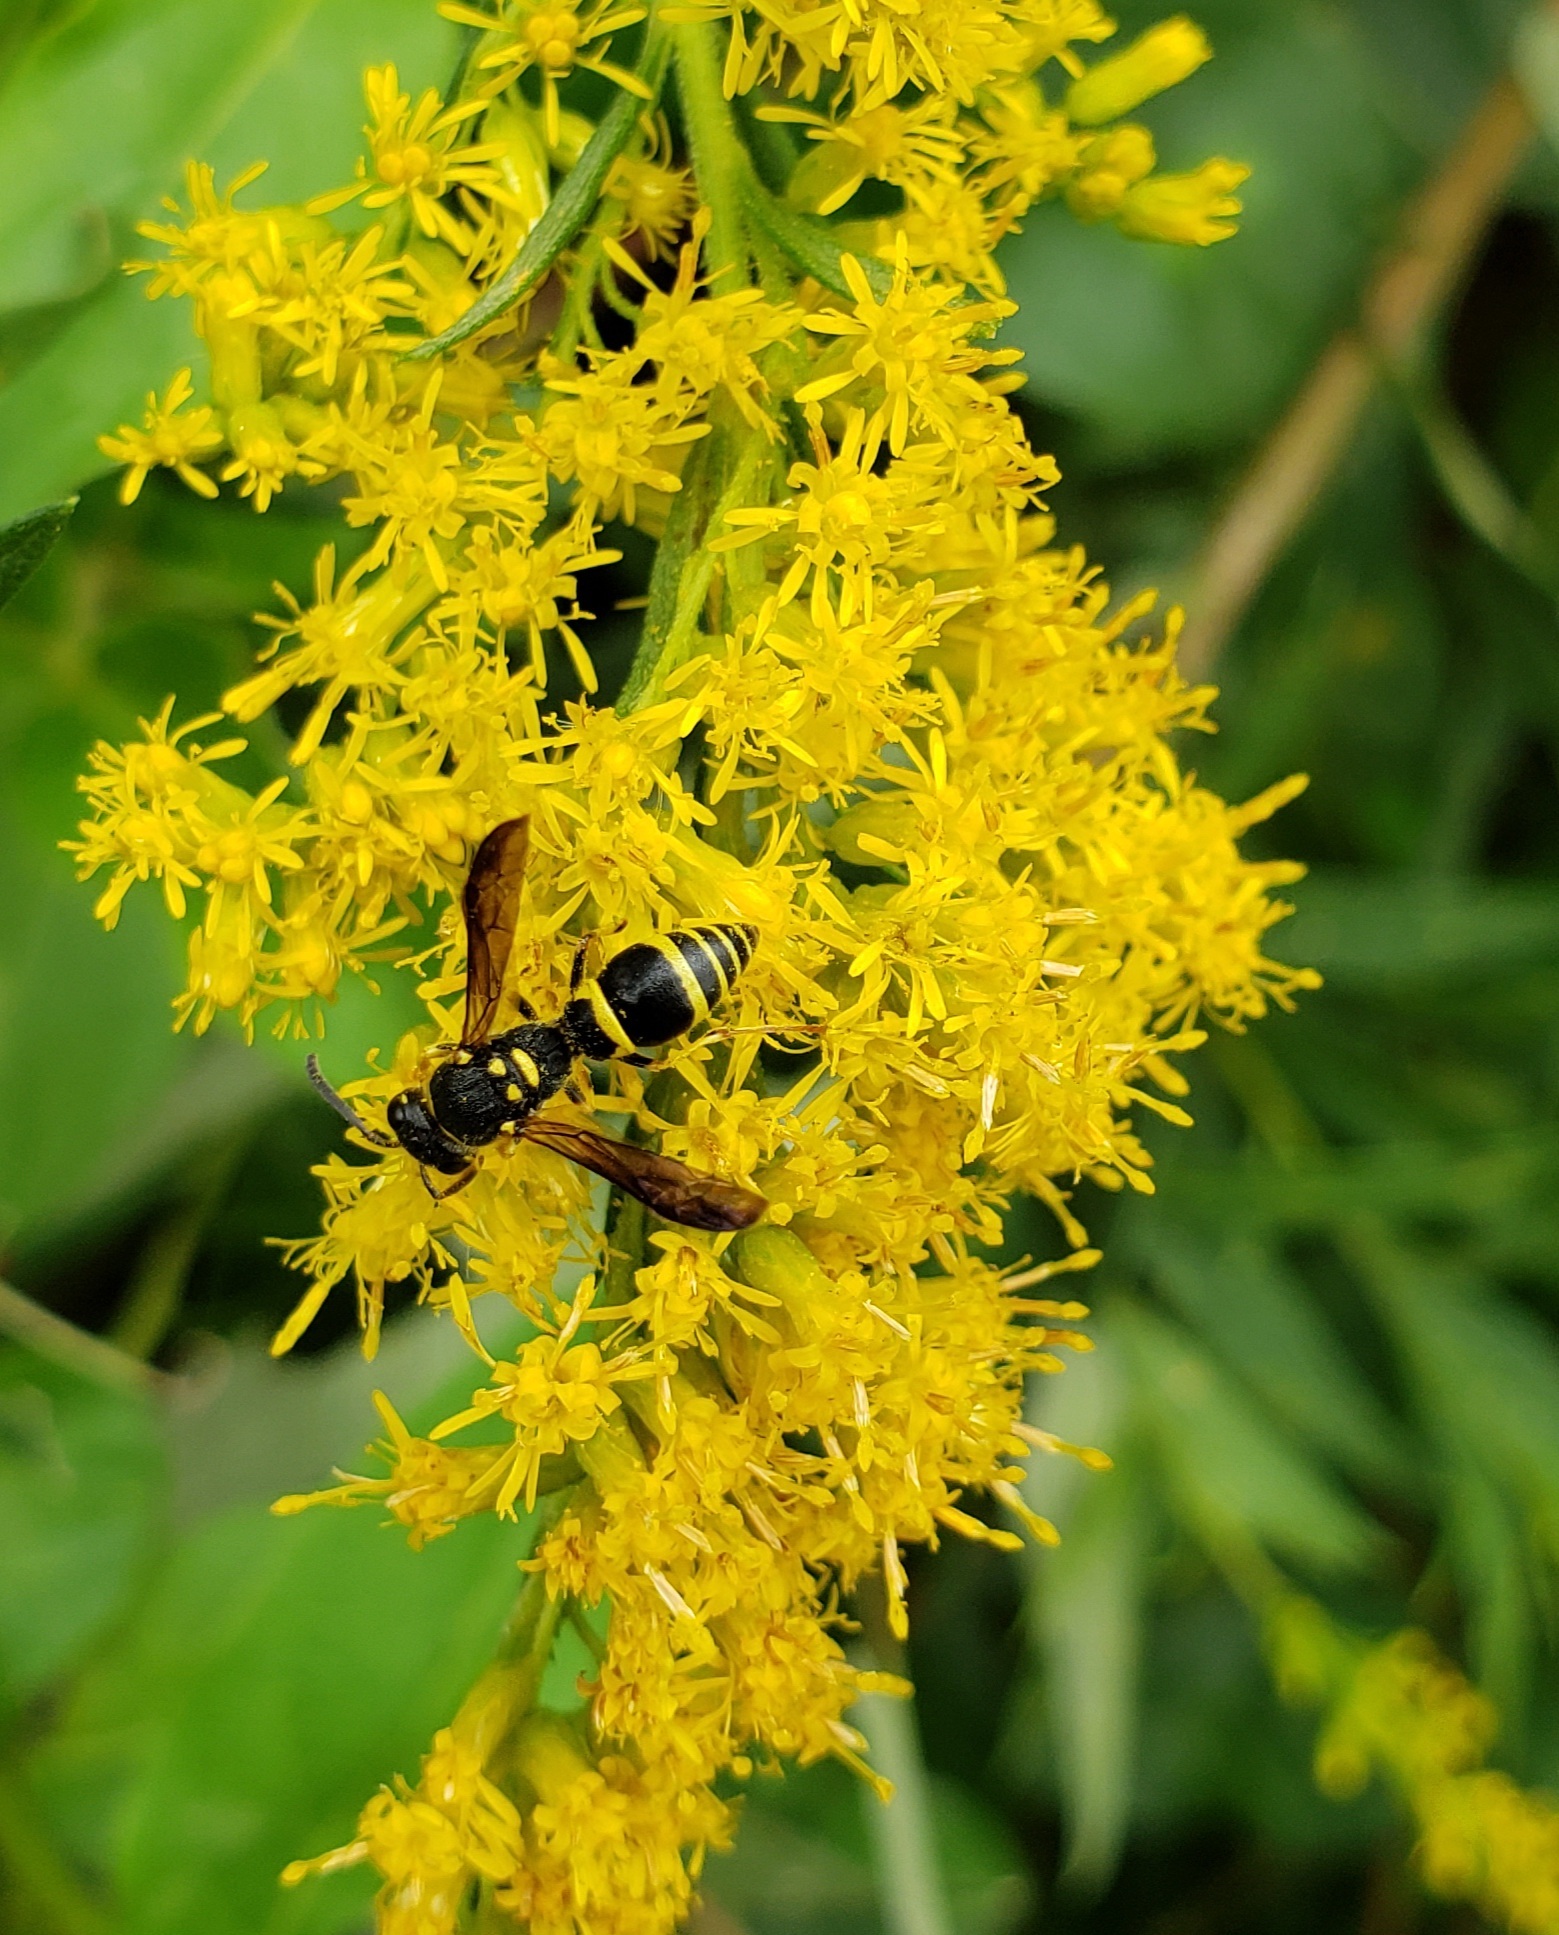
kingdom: Animalia
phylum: Arthropoda
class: Insecta
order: Hymenoptera
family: Vespidae
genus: Ancistrocerus
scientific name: Ancistrocerus adiabatus
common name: Bramble mason wasp
